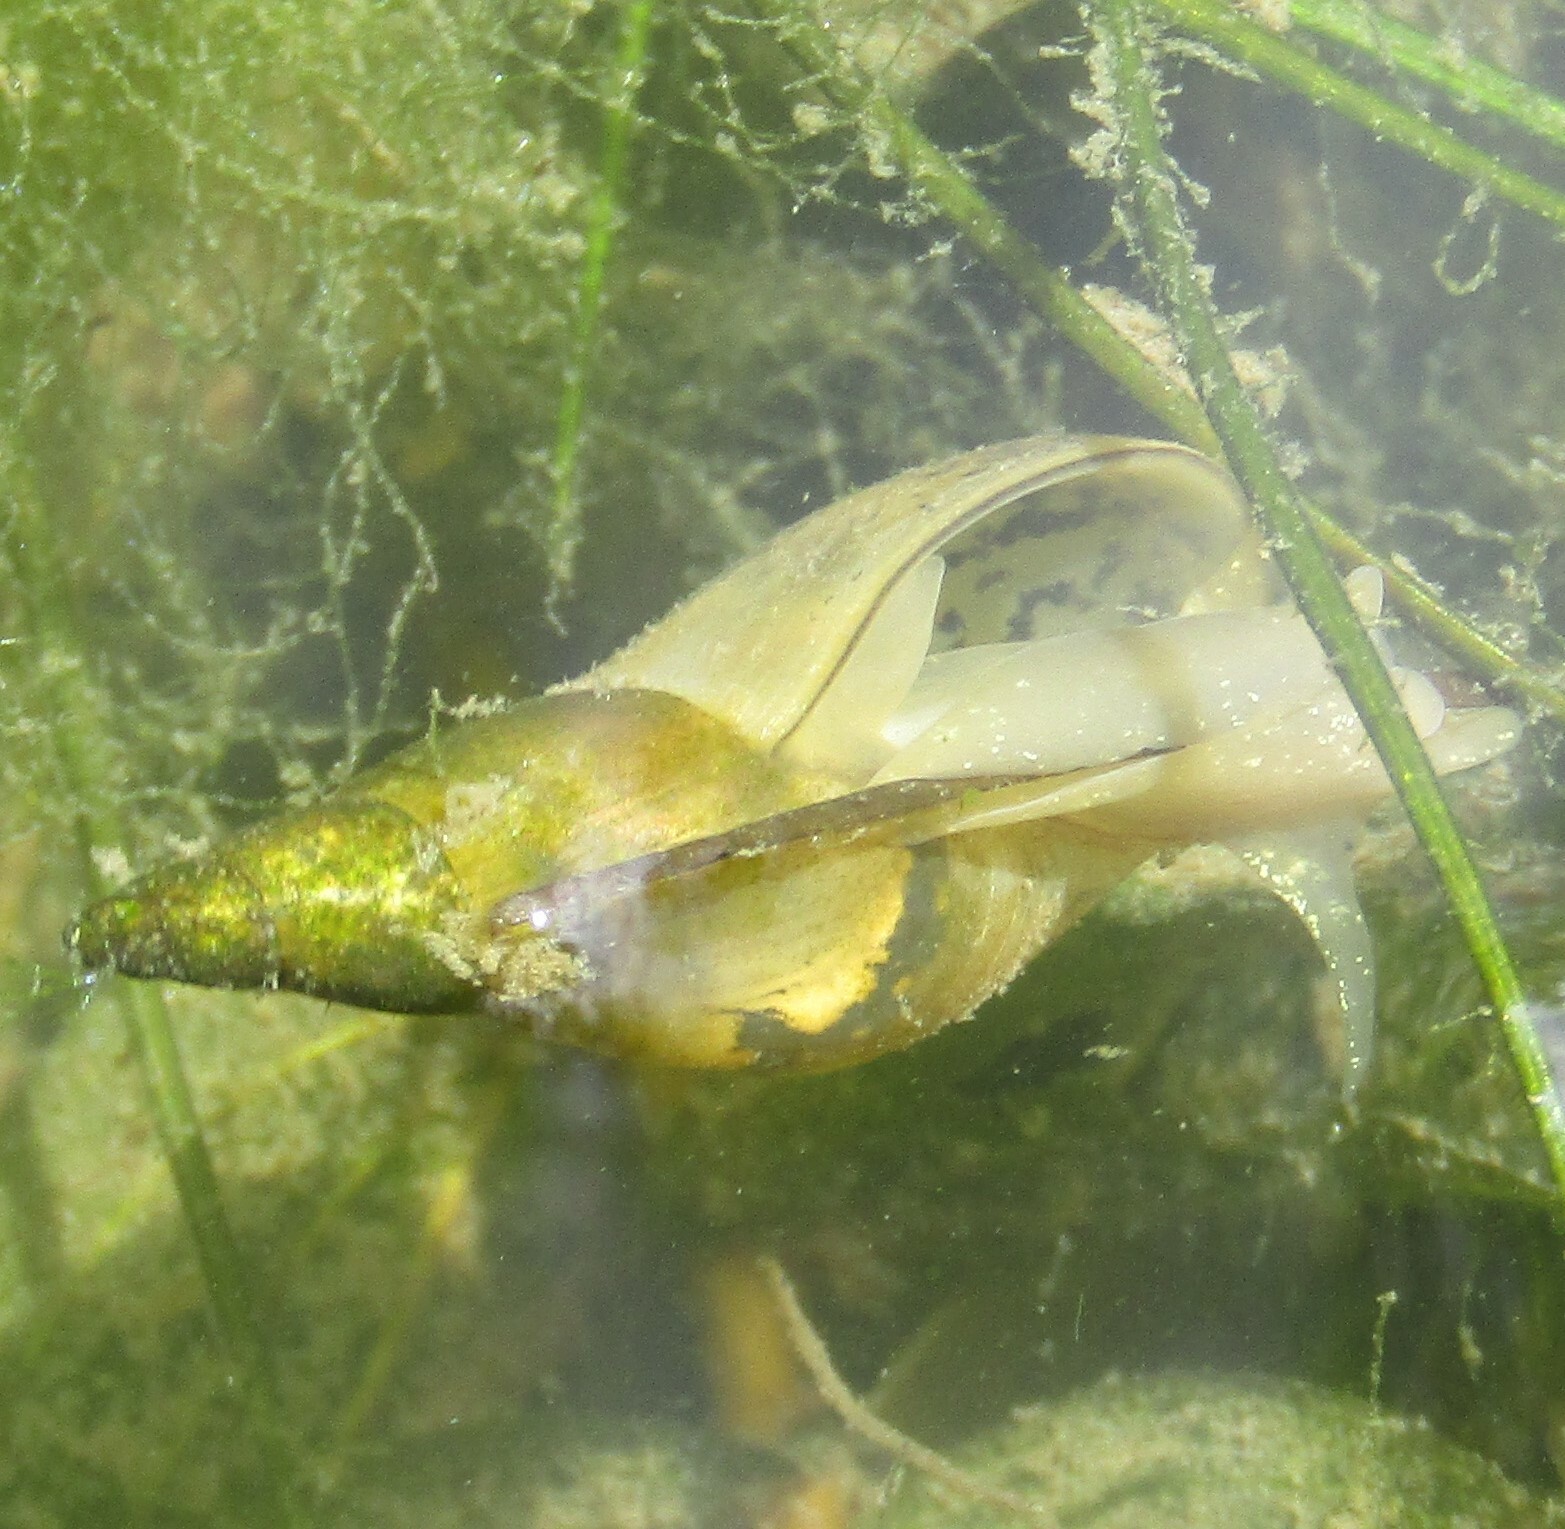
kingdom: Animalia
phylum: Mollusca
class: Gastropoda
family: Lymnaeidae
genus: Lymnaea
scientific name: Lymnaea stagnalis
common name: Great pond snail
